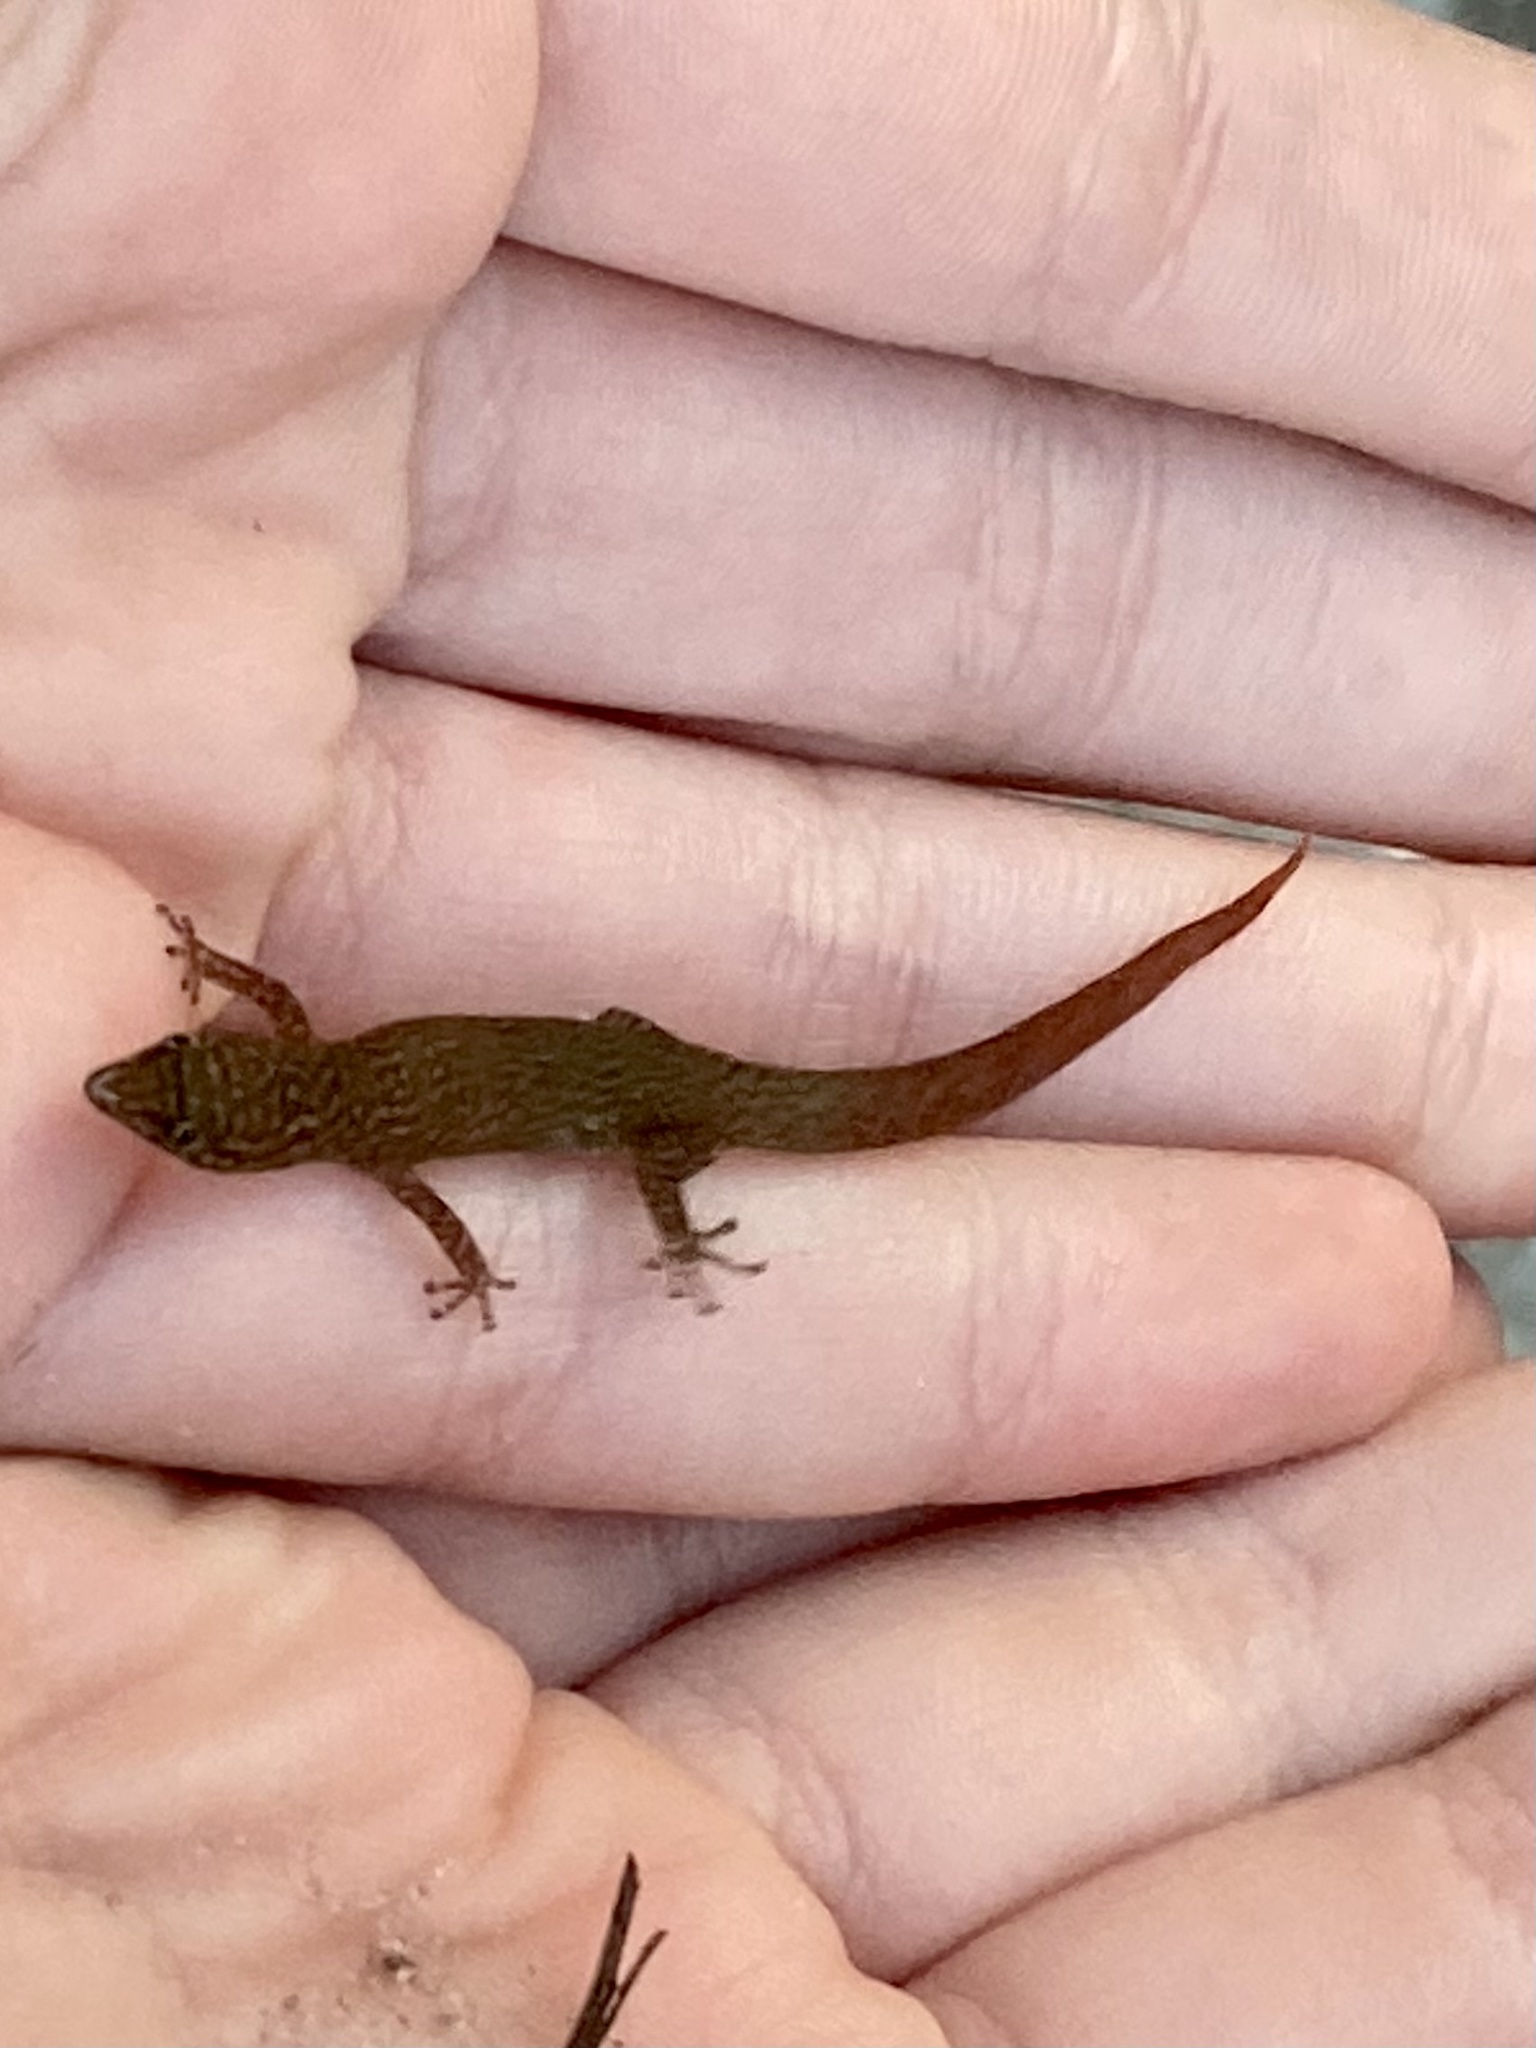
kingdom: Animalia
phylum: Chordata
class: Squamata
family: Sphaerodactylidae
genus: Sphaerodactylus
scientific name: Sphaerodactylus elegans
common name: Ashy gecko
